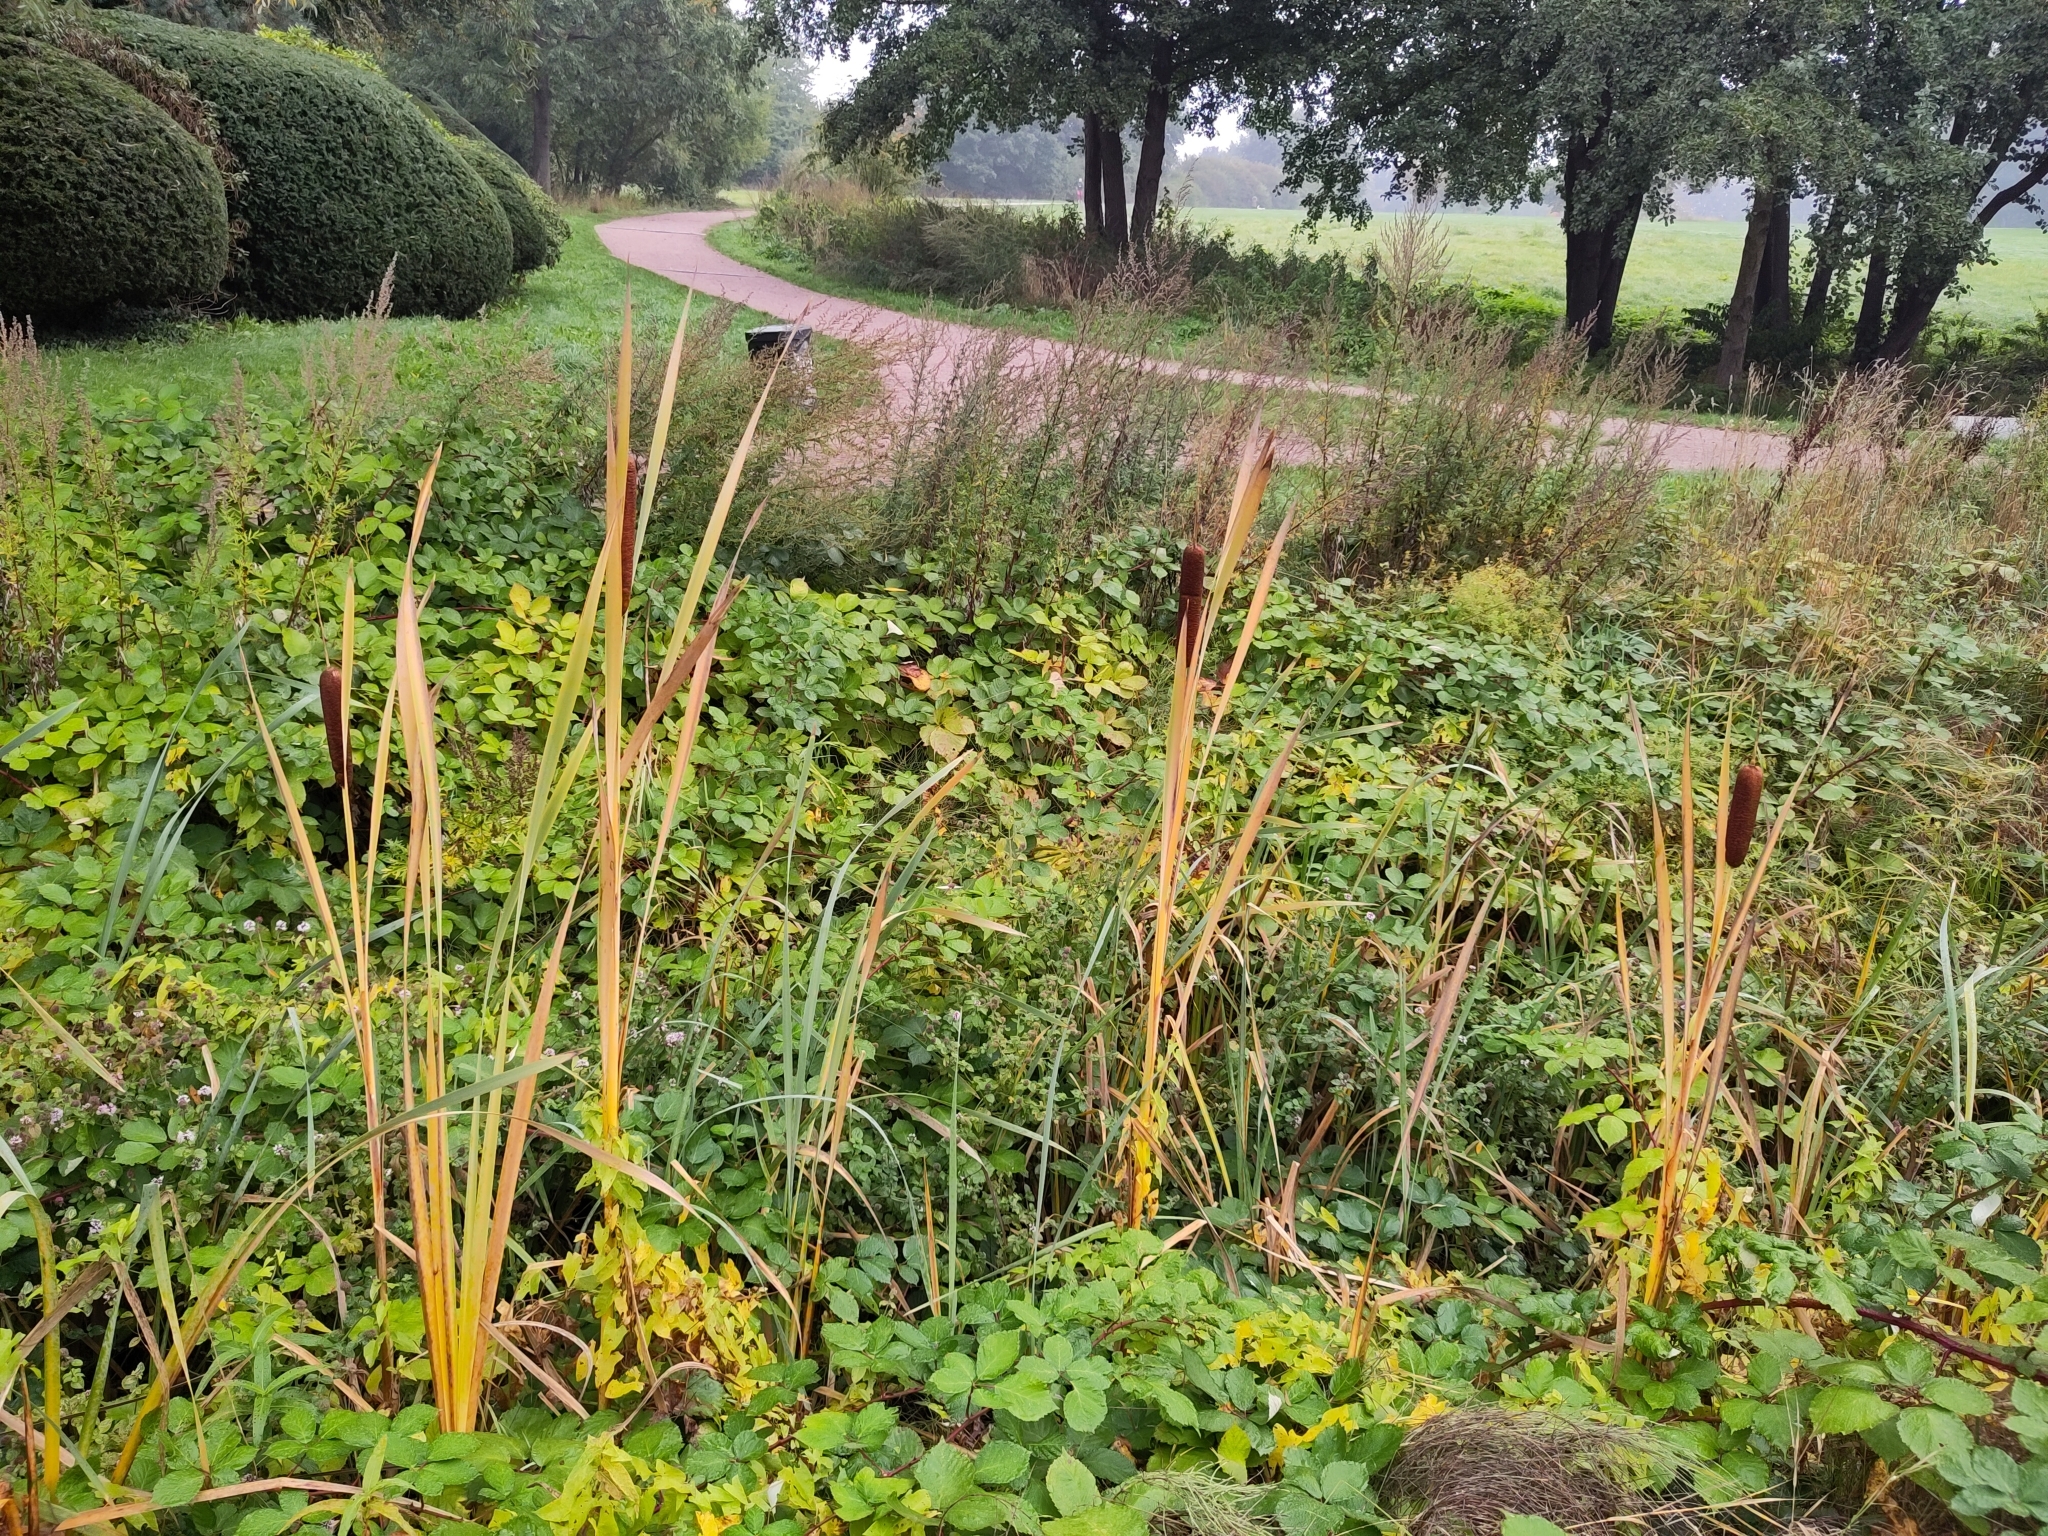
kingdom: Plantae
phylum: Tracheophyta
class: Liliopsida
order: Poales
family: Typhaceae
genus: Typha
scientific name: Typha latifolia
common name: Broadleaf cattail
